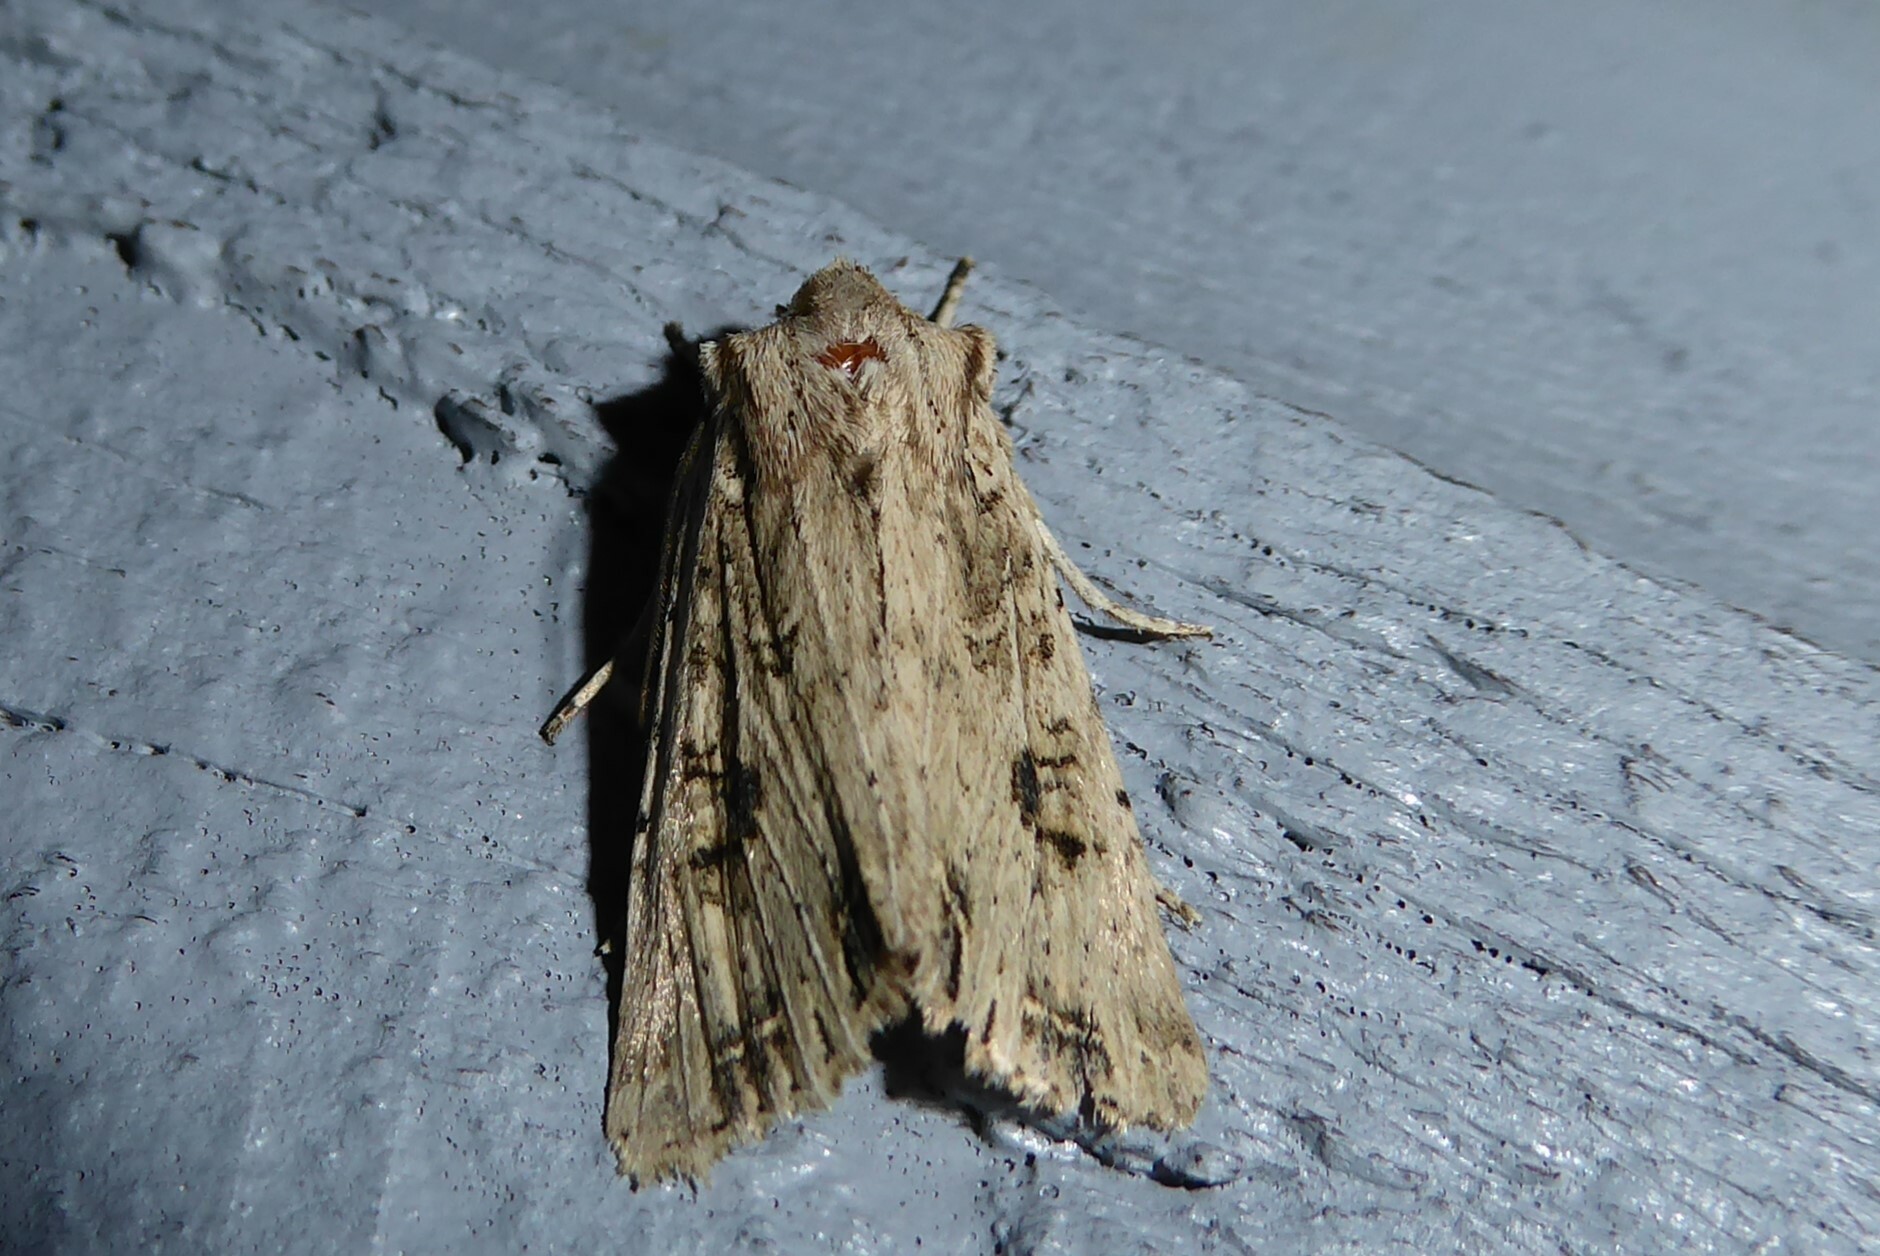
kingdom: Animalia
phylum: Arthropoda
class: Insecta
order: Lepidoptera
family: Noctuidae
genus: Ichneutica
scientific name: Ichneutica lignana
